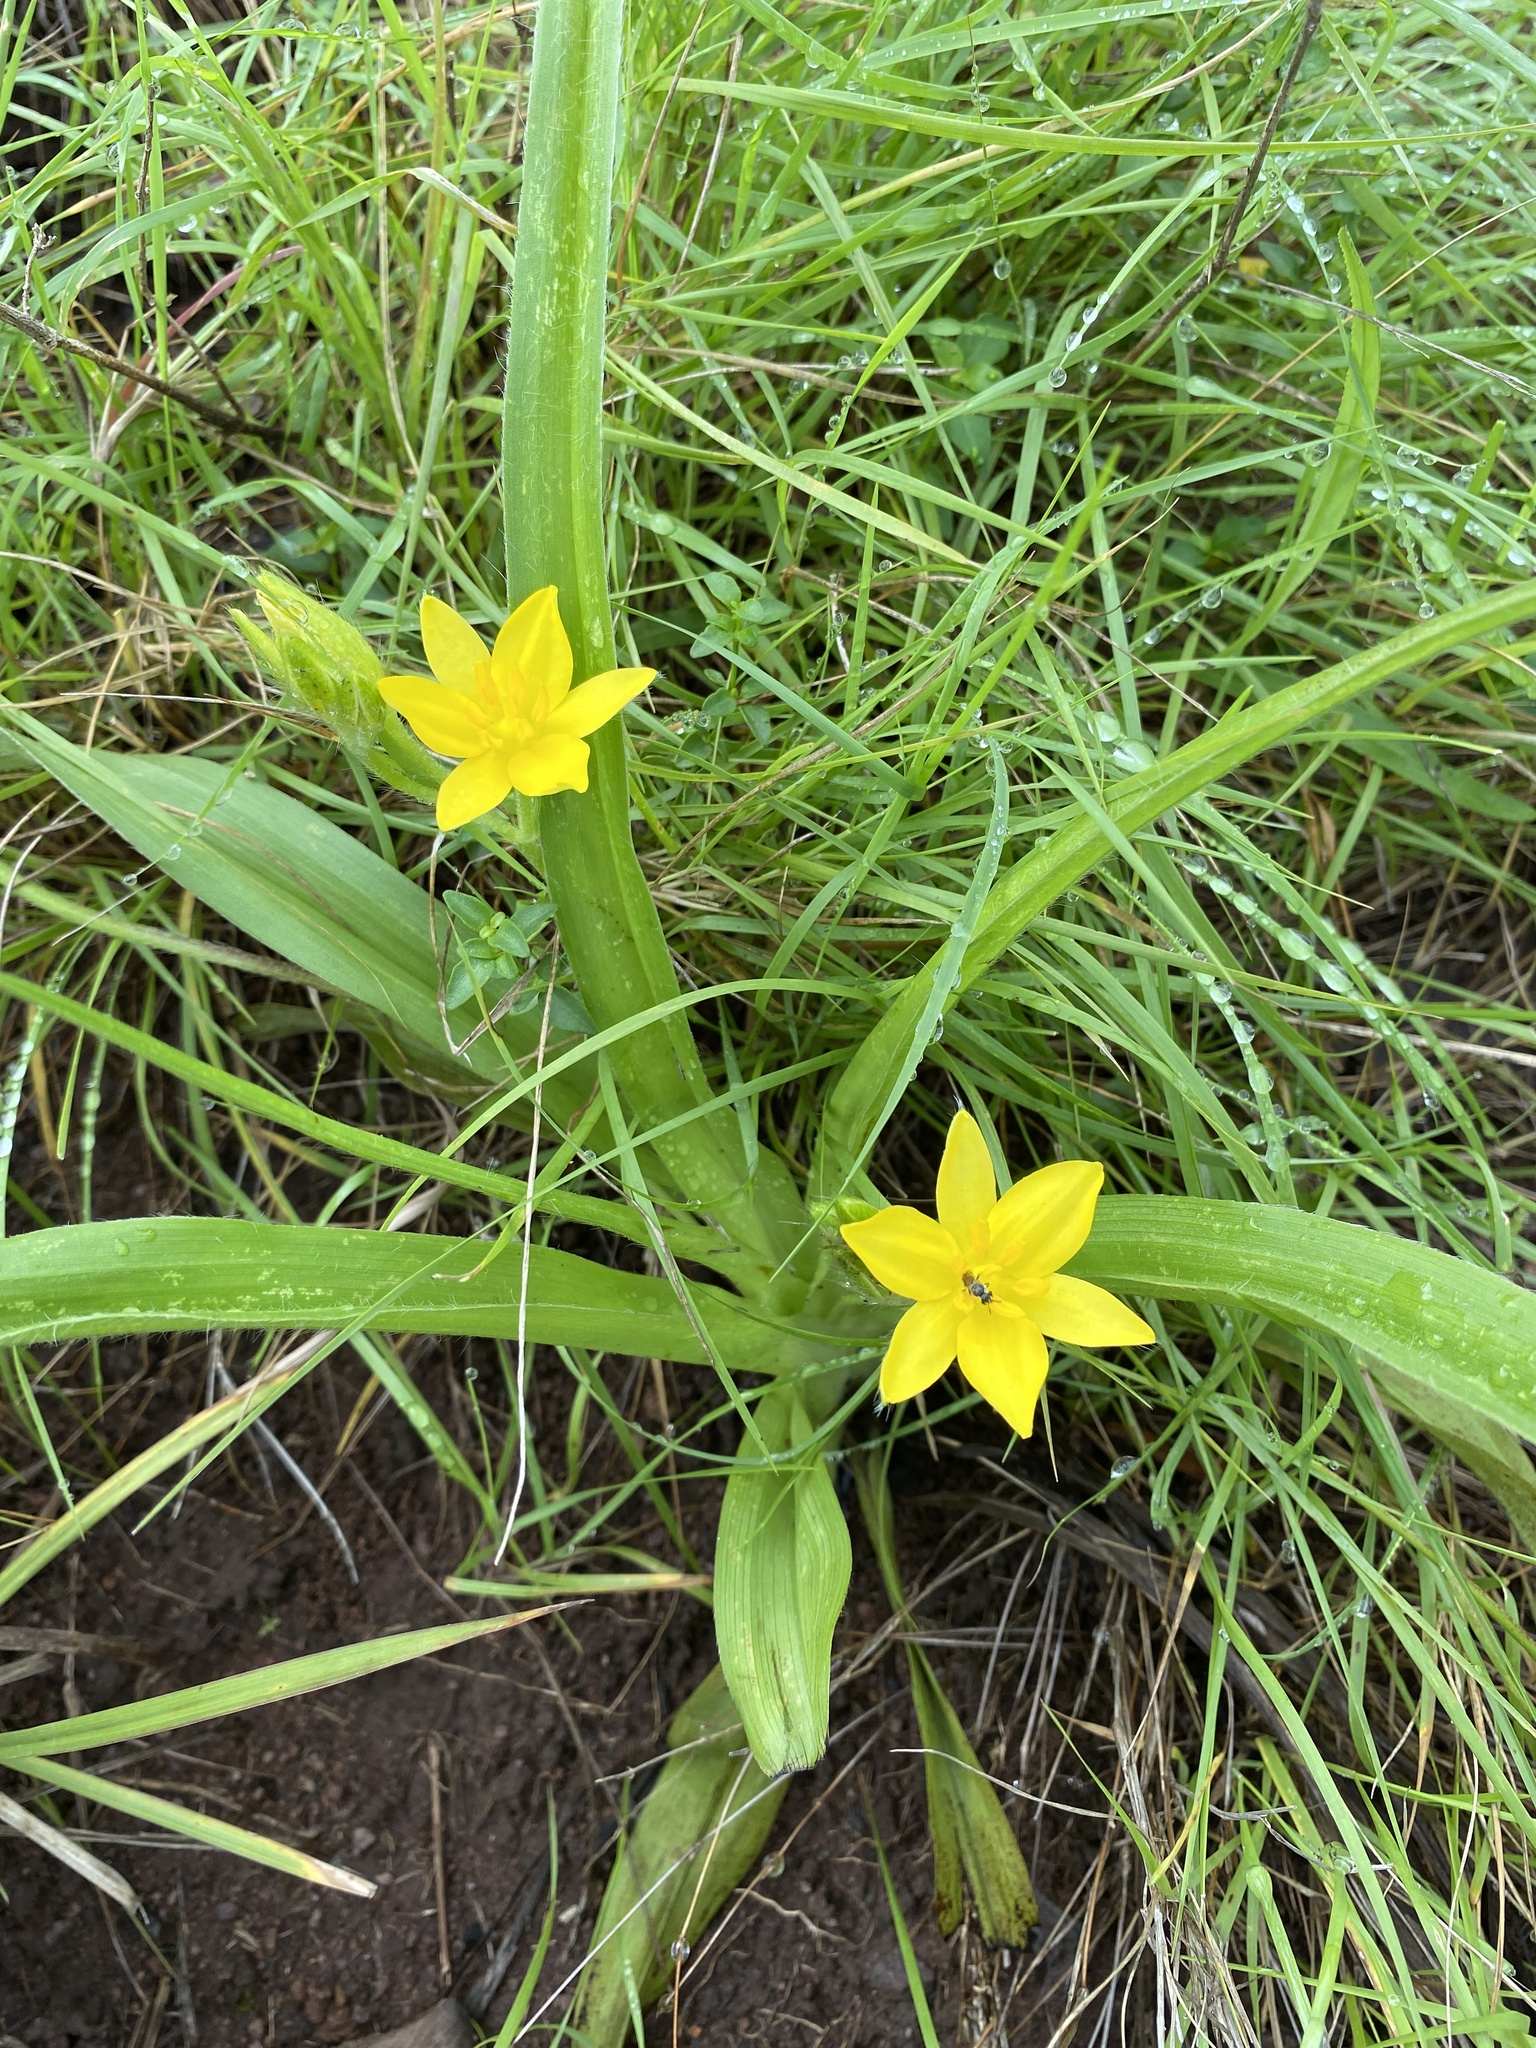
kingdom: Plantae
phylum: Tracheophyta
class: Liliopsida
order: Asparagales
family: Hypoxidaceae
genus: Hypoxis
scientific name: Hypoxis hemerocallidea
